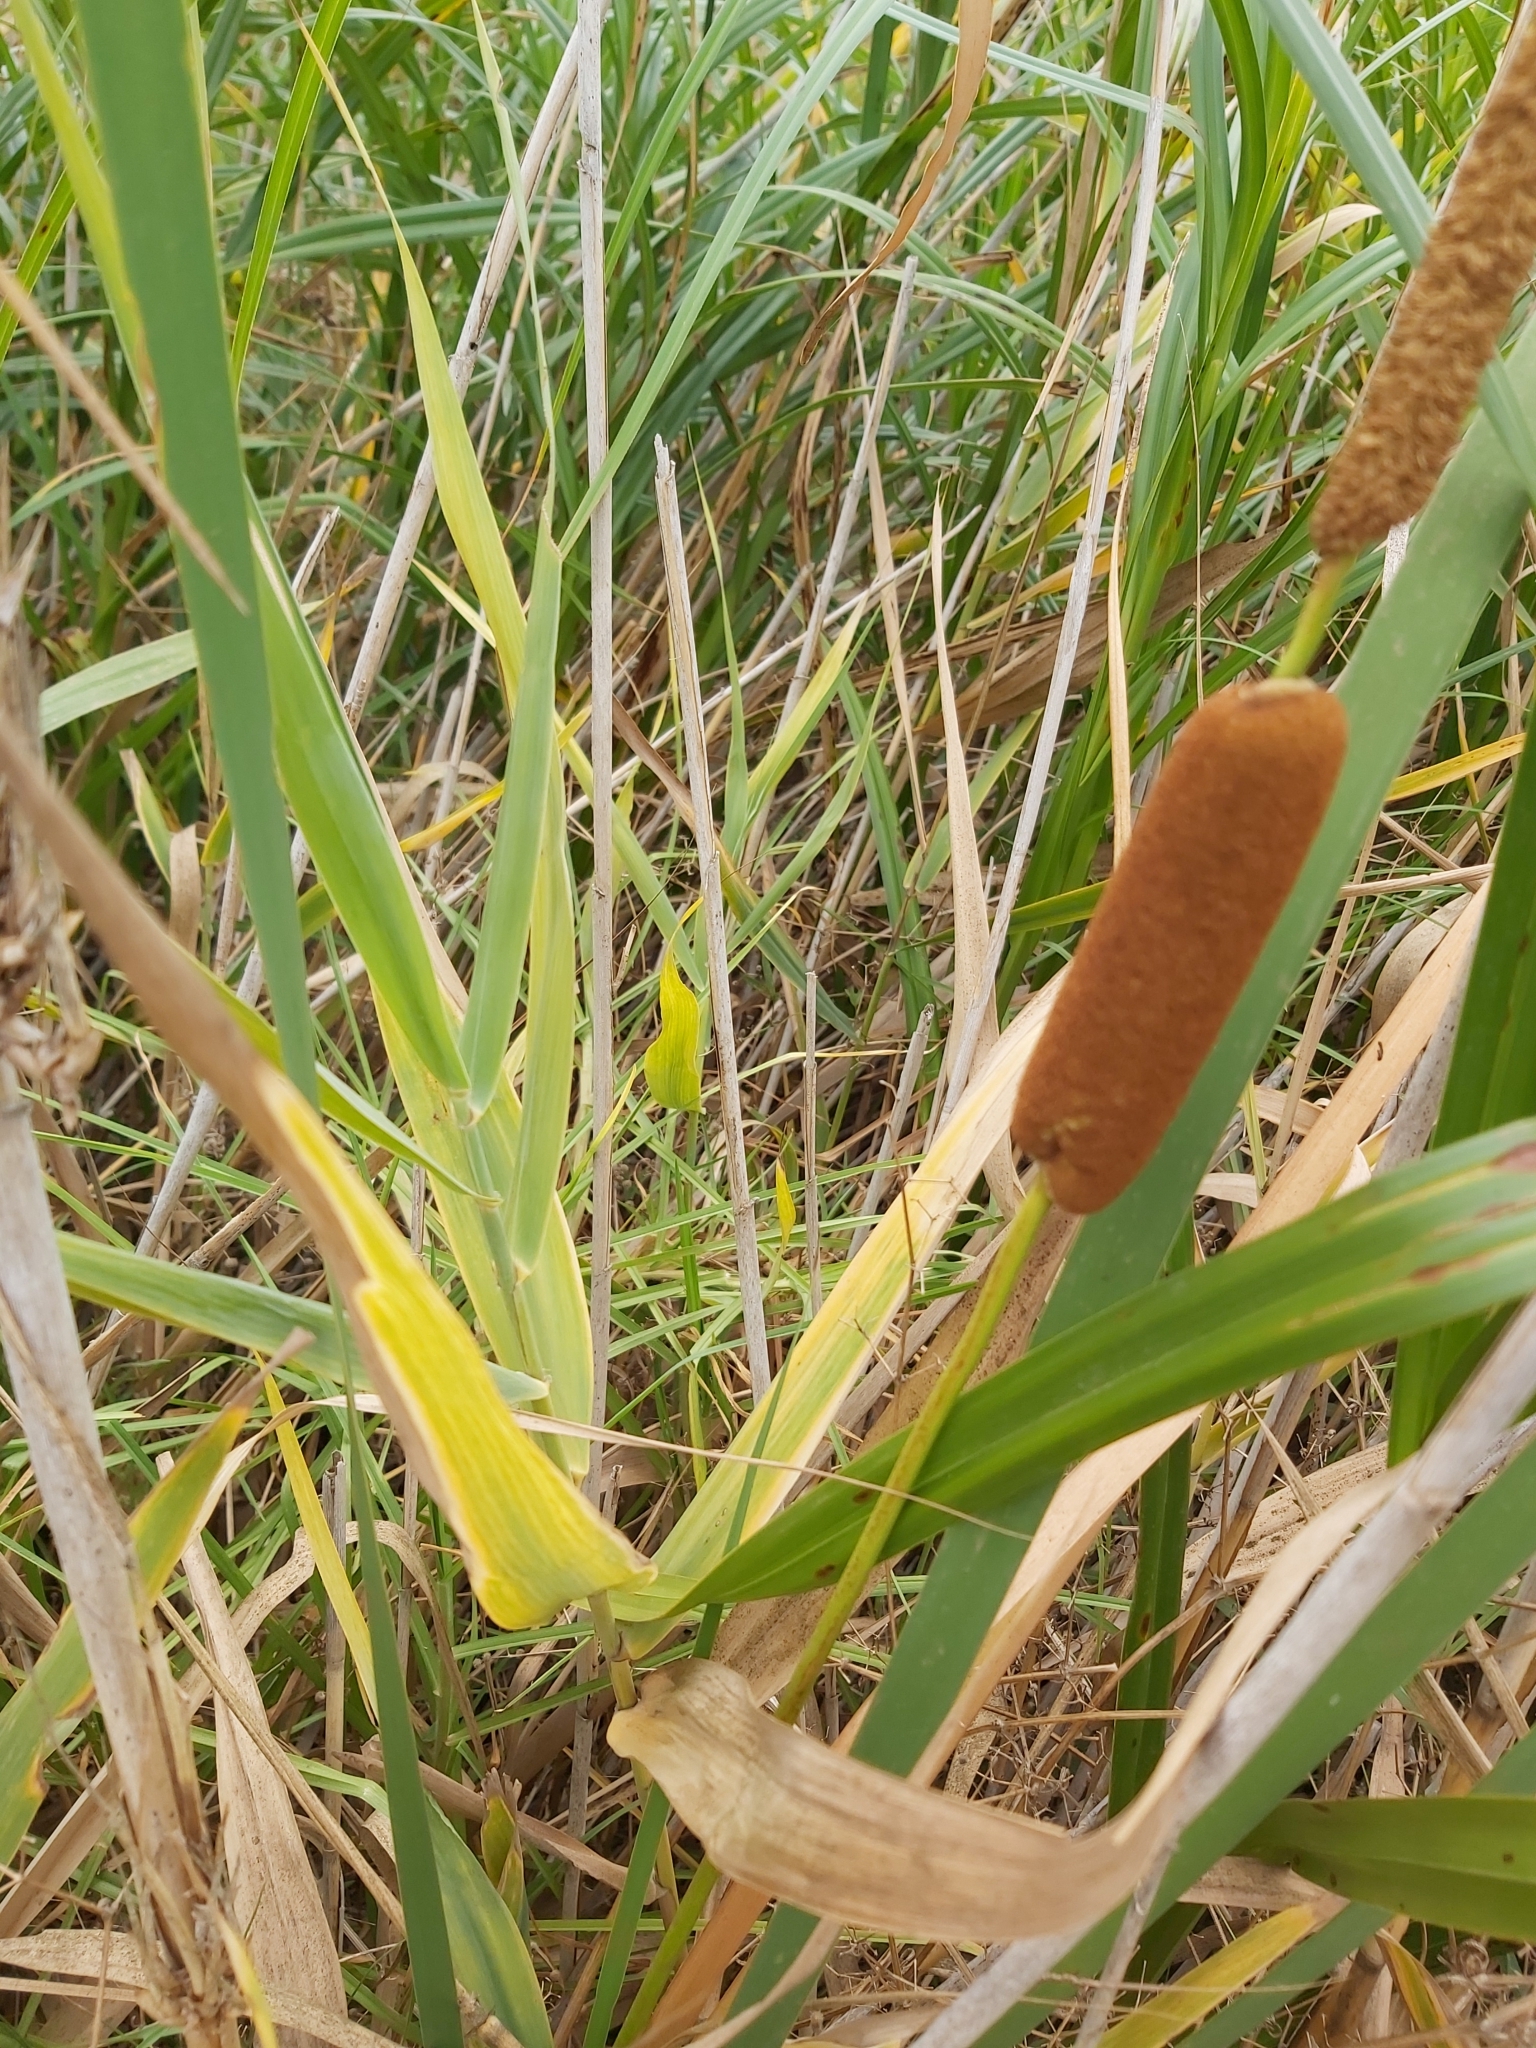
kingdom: Plantae
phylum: Tracheophyta
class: Liliopsida
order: Poales
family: Typhaceae
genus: Typha
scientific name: Typha orientalis
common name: Bullrush
